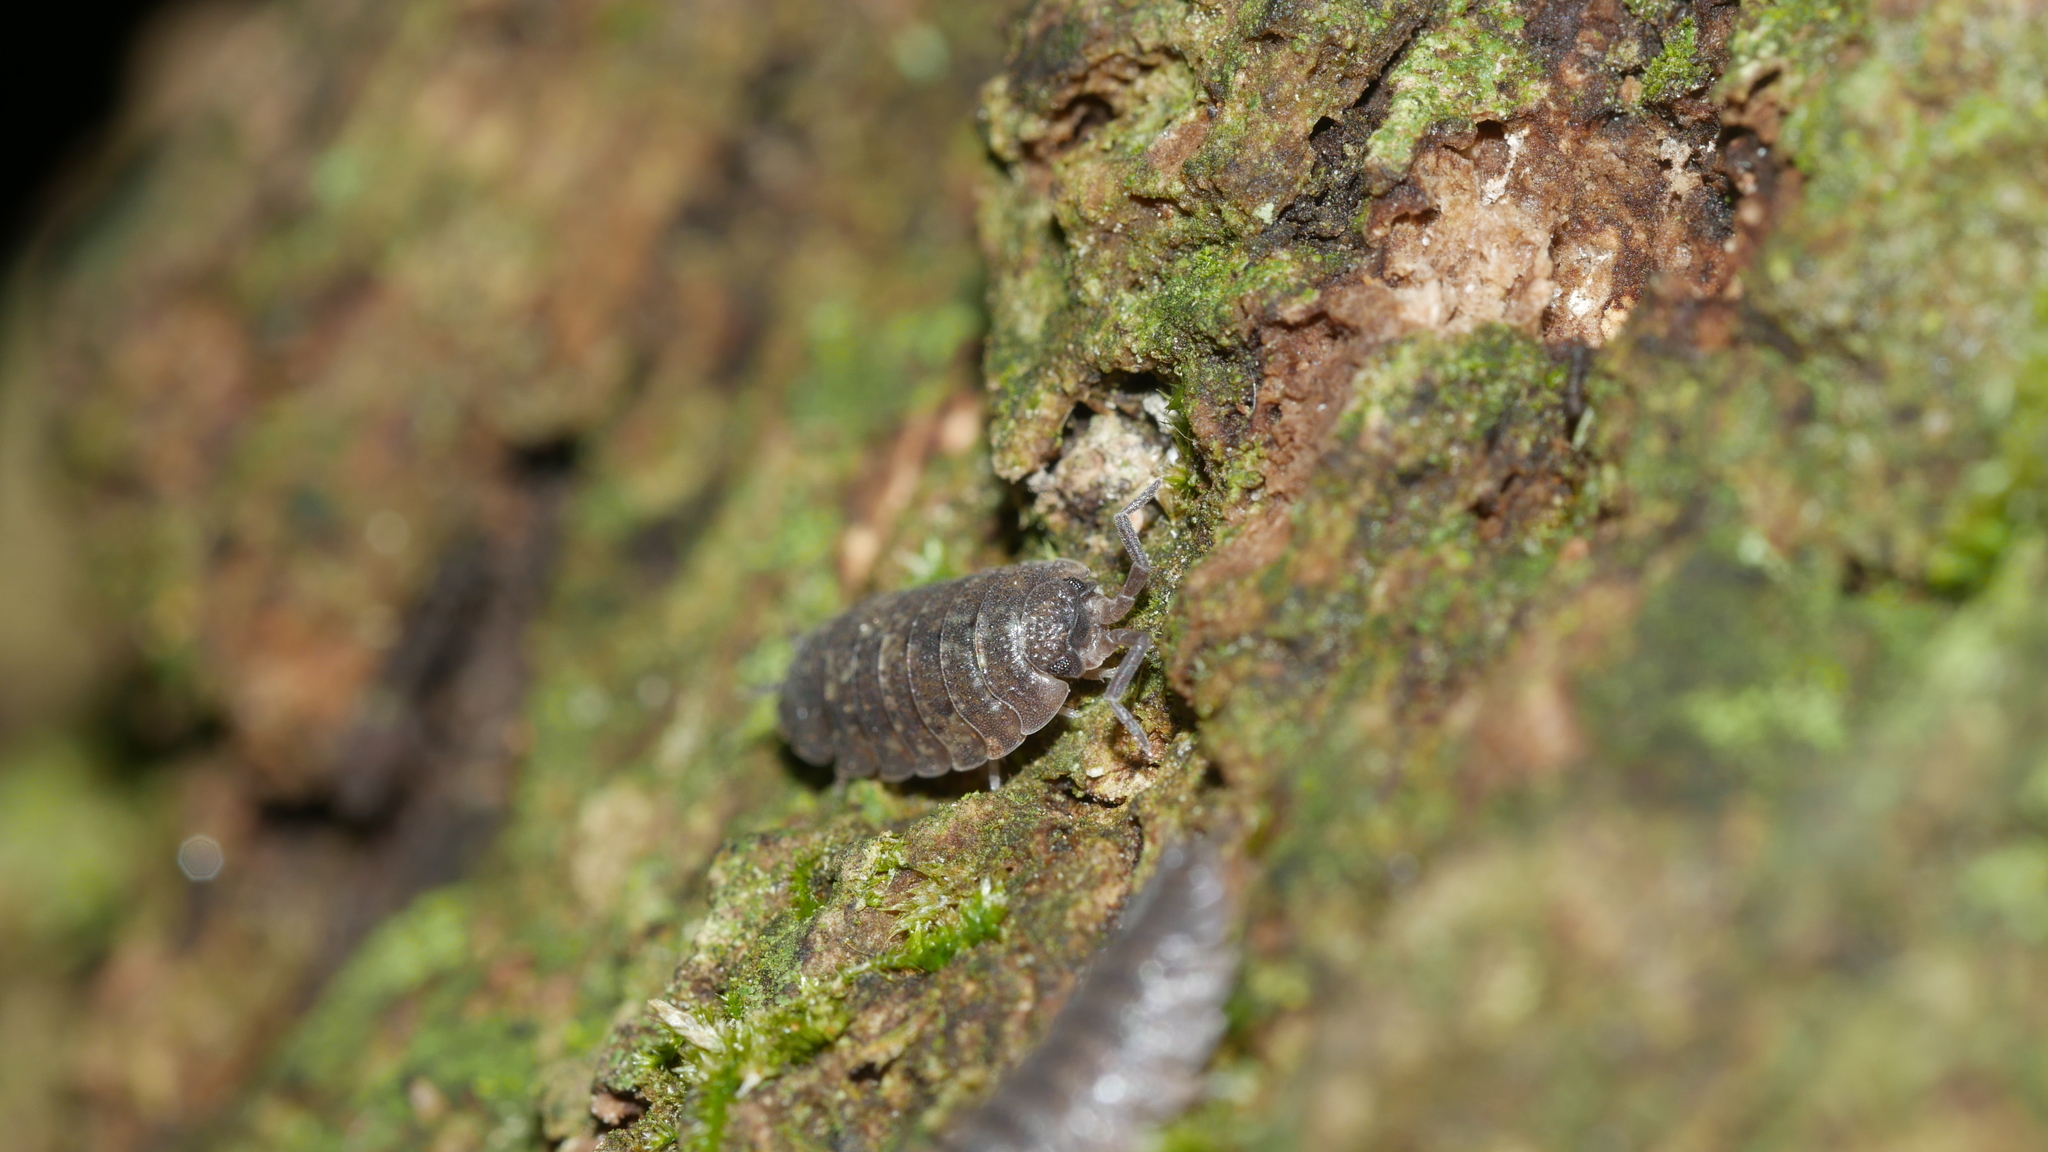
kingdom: Animalia
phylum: Arthropoda
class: Malacostraca
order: Isopoda
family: Porcellionidae
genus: Porcellio
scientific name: Porcellio scaber
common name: Common rough woodlouse
